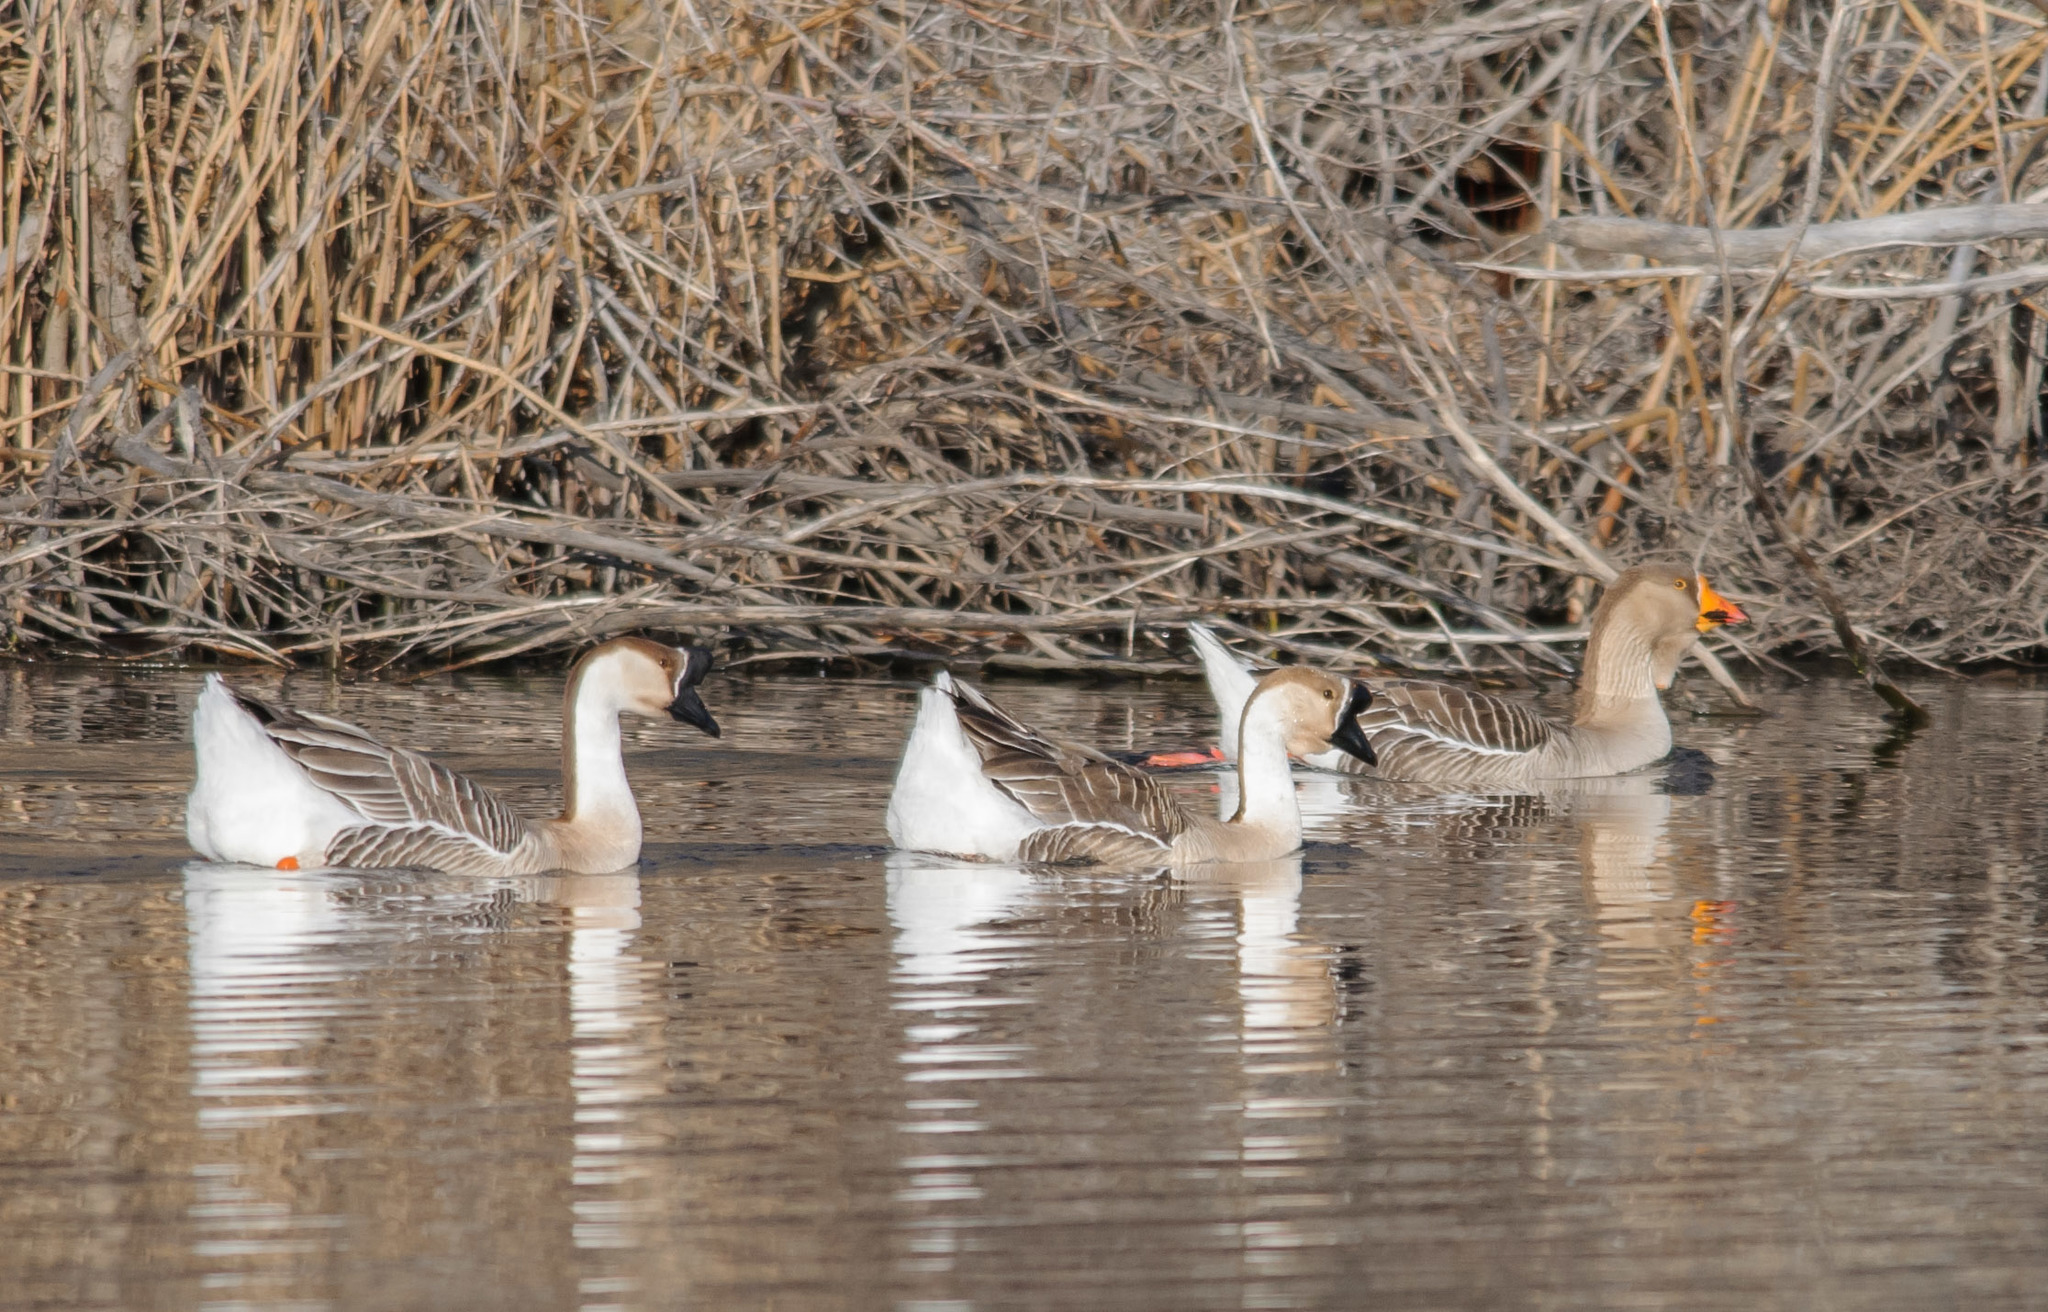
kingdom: Animalia
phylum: Chordata
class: Aves
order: Anseriformes
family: Anatidae
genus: Anser
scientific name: Anser cygnoides
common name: Swan goose
